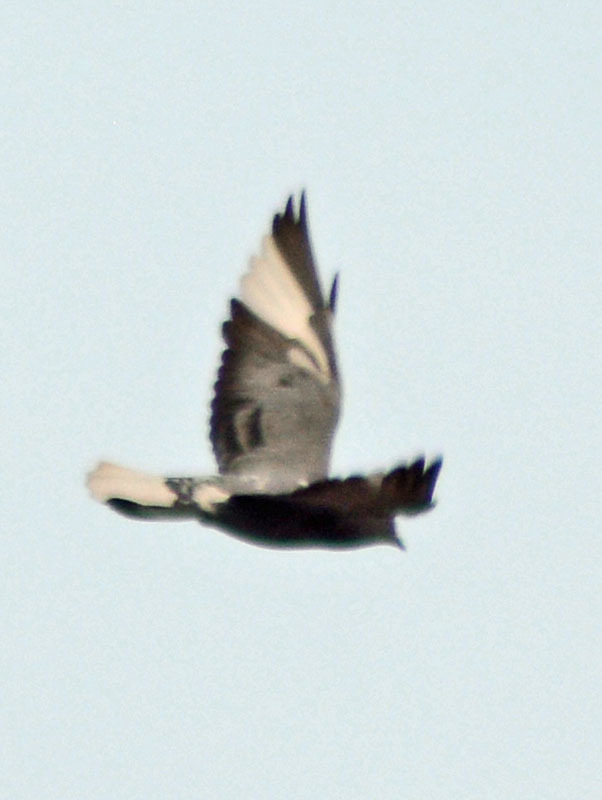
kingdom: Animalia
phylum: Chordata
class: Aves
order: Columbiformes
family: Columbidae
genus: Columba
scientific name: Columba livia
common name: Rock pigeon
